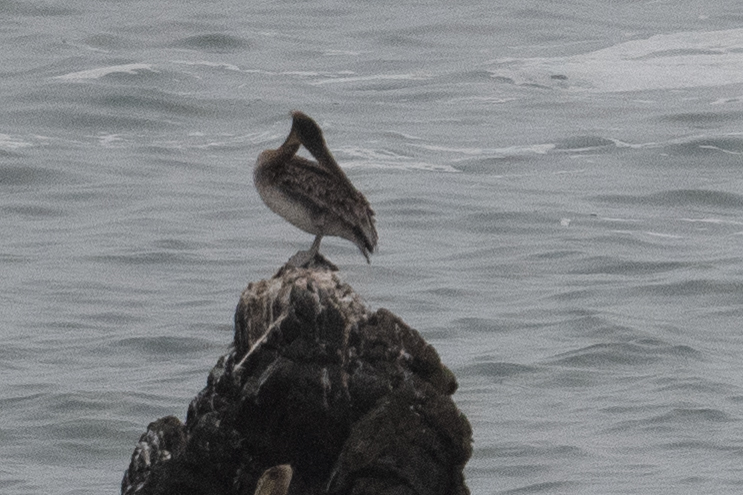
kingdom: Animalia
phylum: Chordata
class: Aves
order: Pelecaniformes
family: Pelecanidae
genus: Pelecanus
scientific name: Pelecanus occidentalis
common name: Brown pelican
